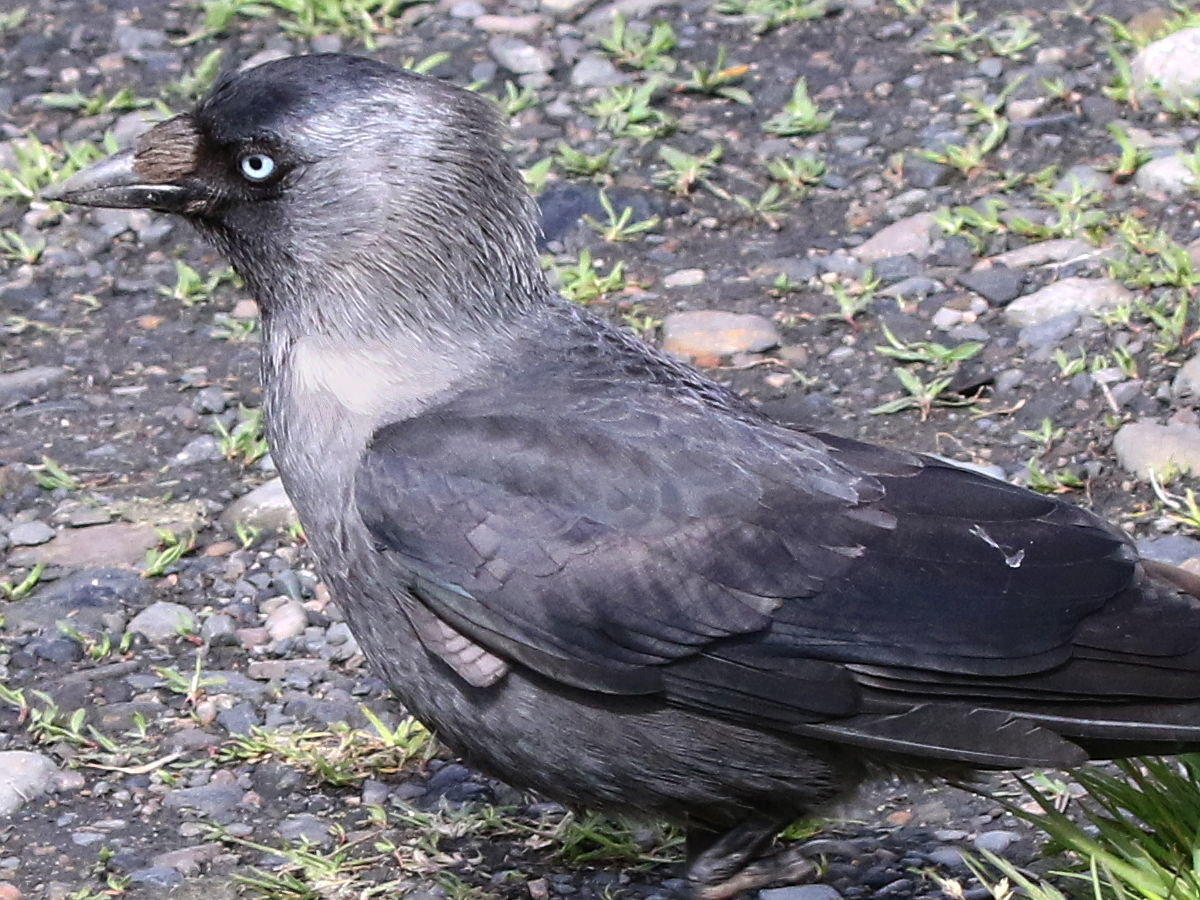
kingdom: Animalia
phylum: Chordata
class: Aves
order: Passeriformes
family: Corvidae
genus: Coloeus
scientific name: Coloeus monedula
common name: Western jackdaw
